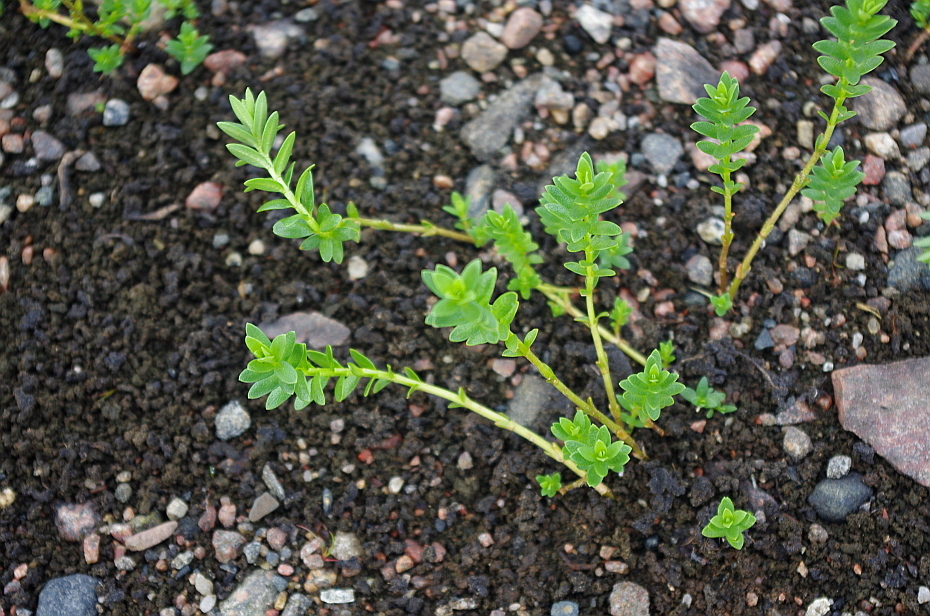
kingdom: Plantae
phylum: Tracheophyta
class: Magnoliopsida
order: Ericales
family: Primulaceae
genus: Lysimachia
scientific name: Lysimachia maritima
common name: Sea milkwort
